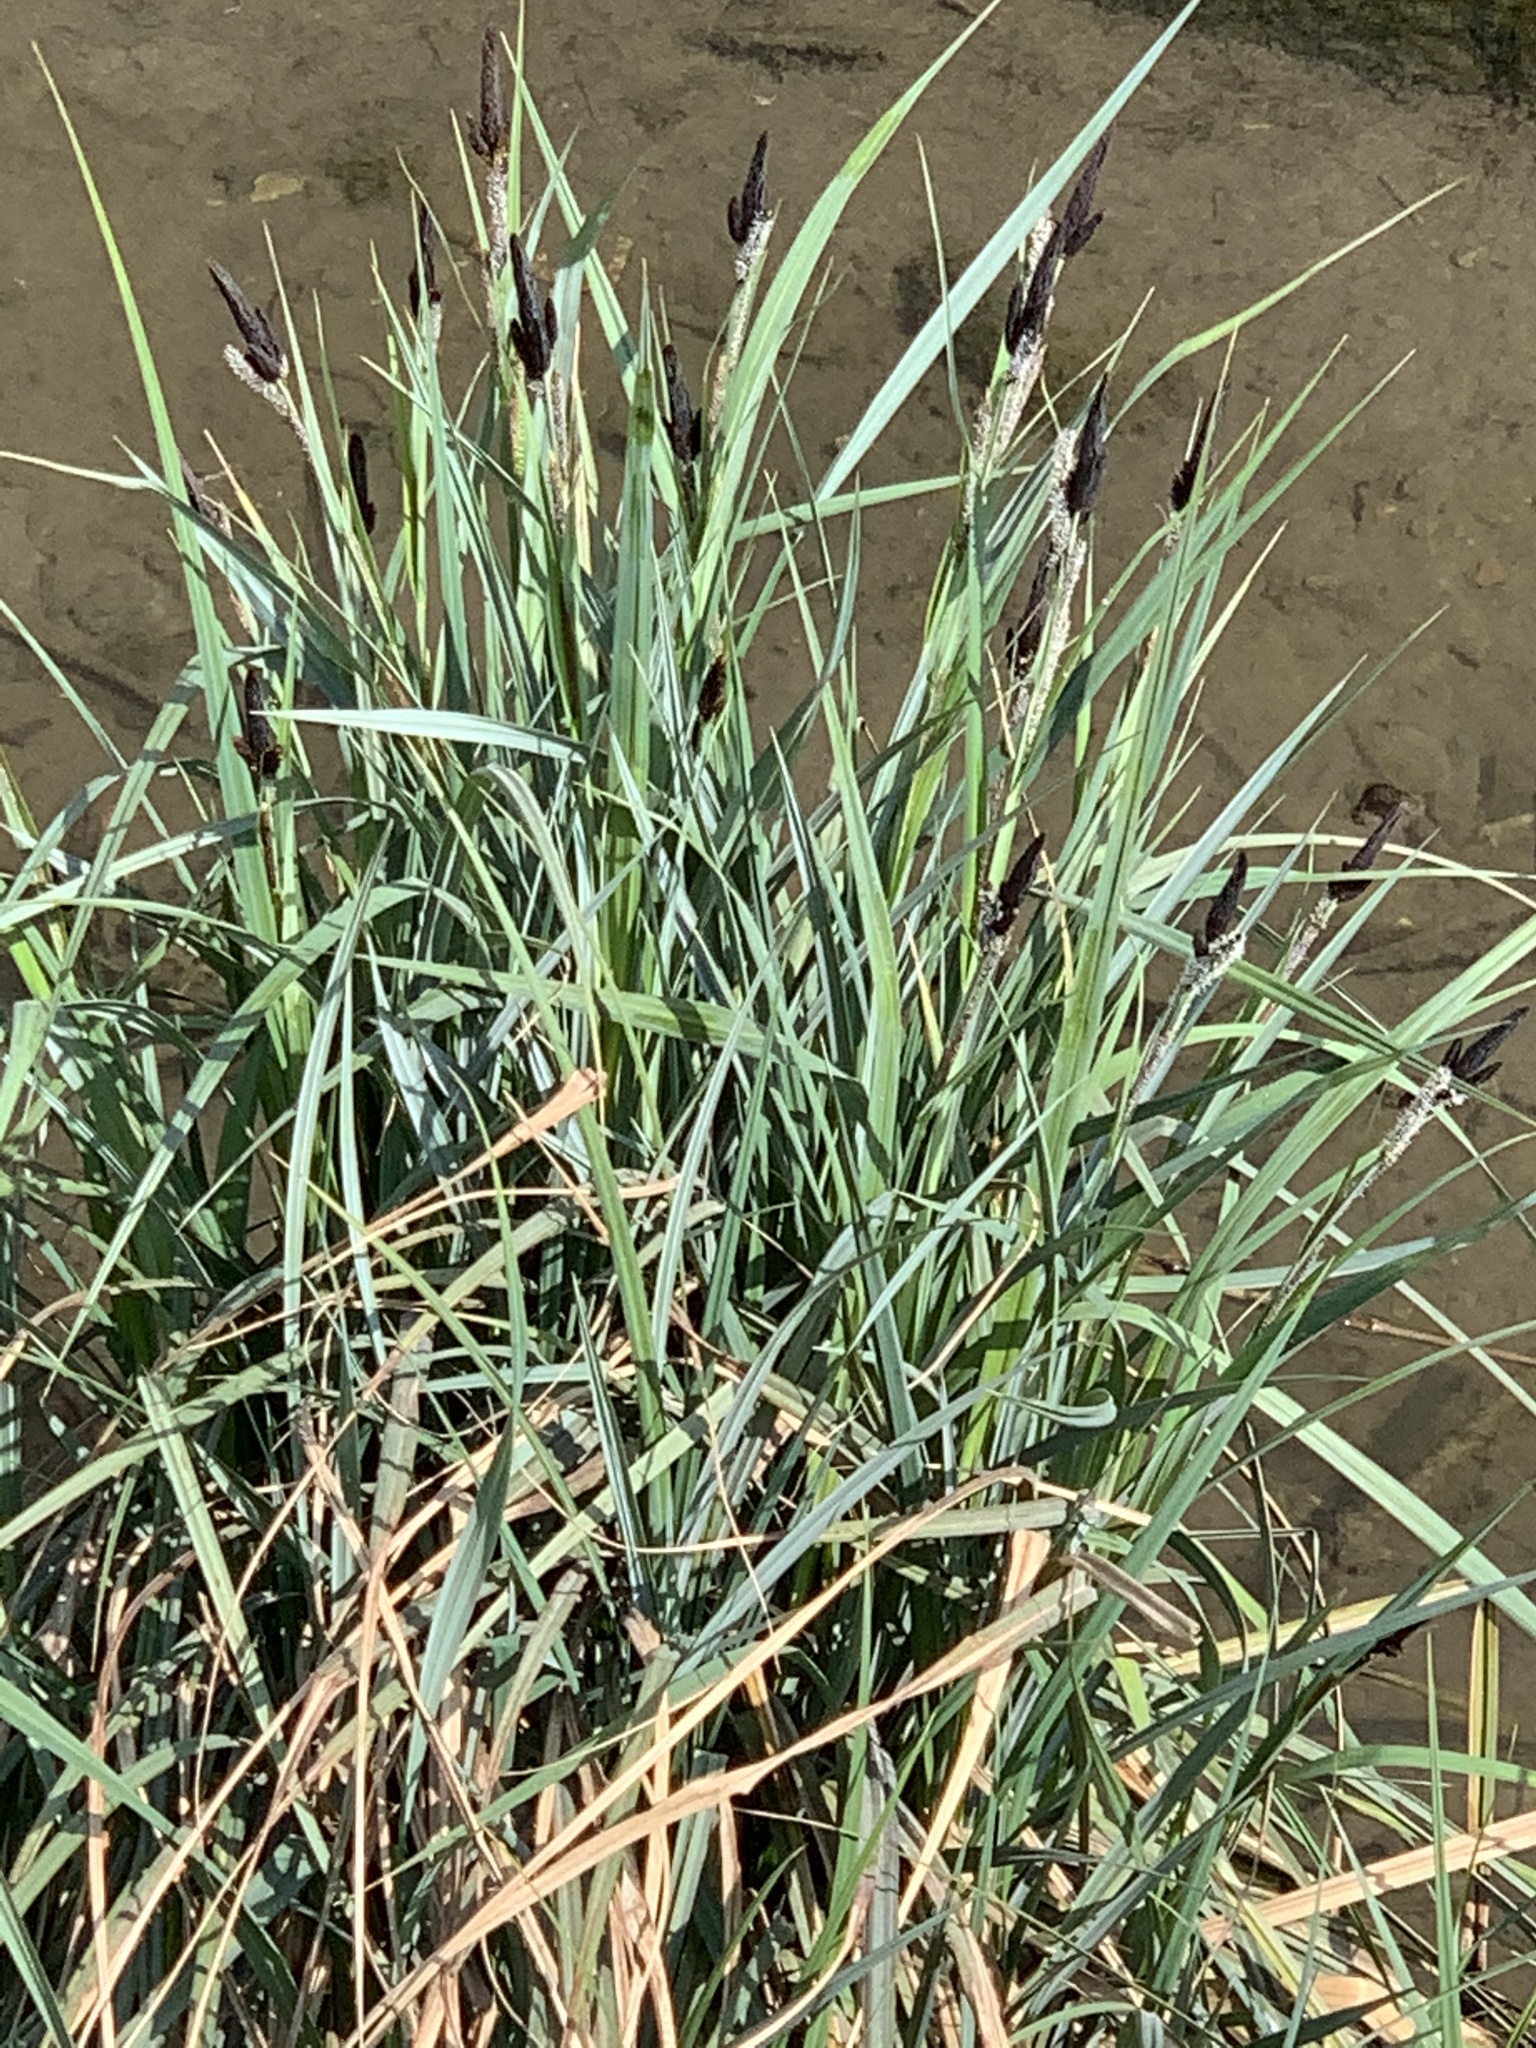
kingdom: Plantae
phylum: Tracheophyta
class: Liliopsida
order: Poales
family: Cyperaceae
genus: Carex
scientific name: Carex acutiformis
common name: Lesser pond-sedge
